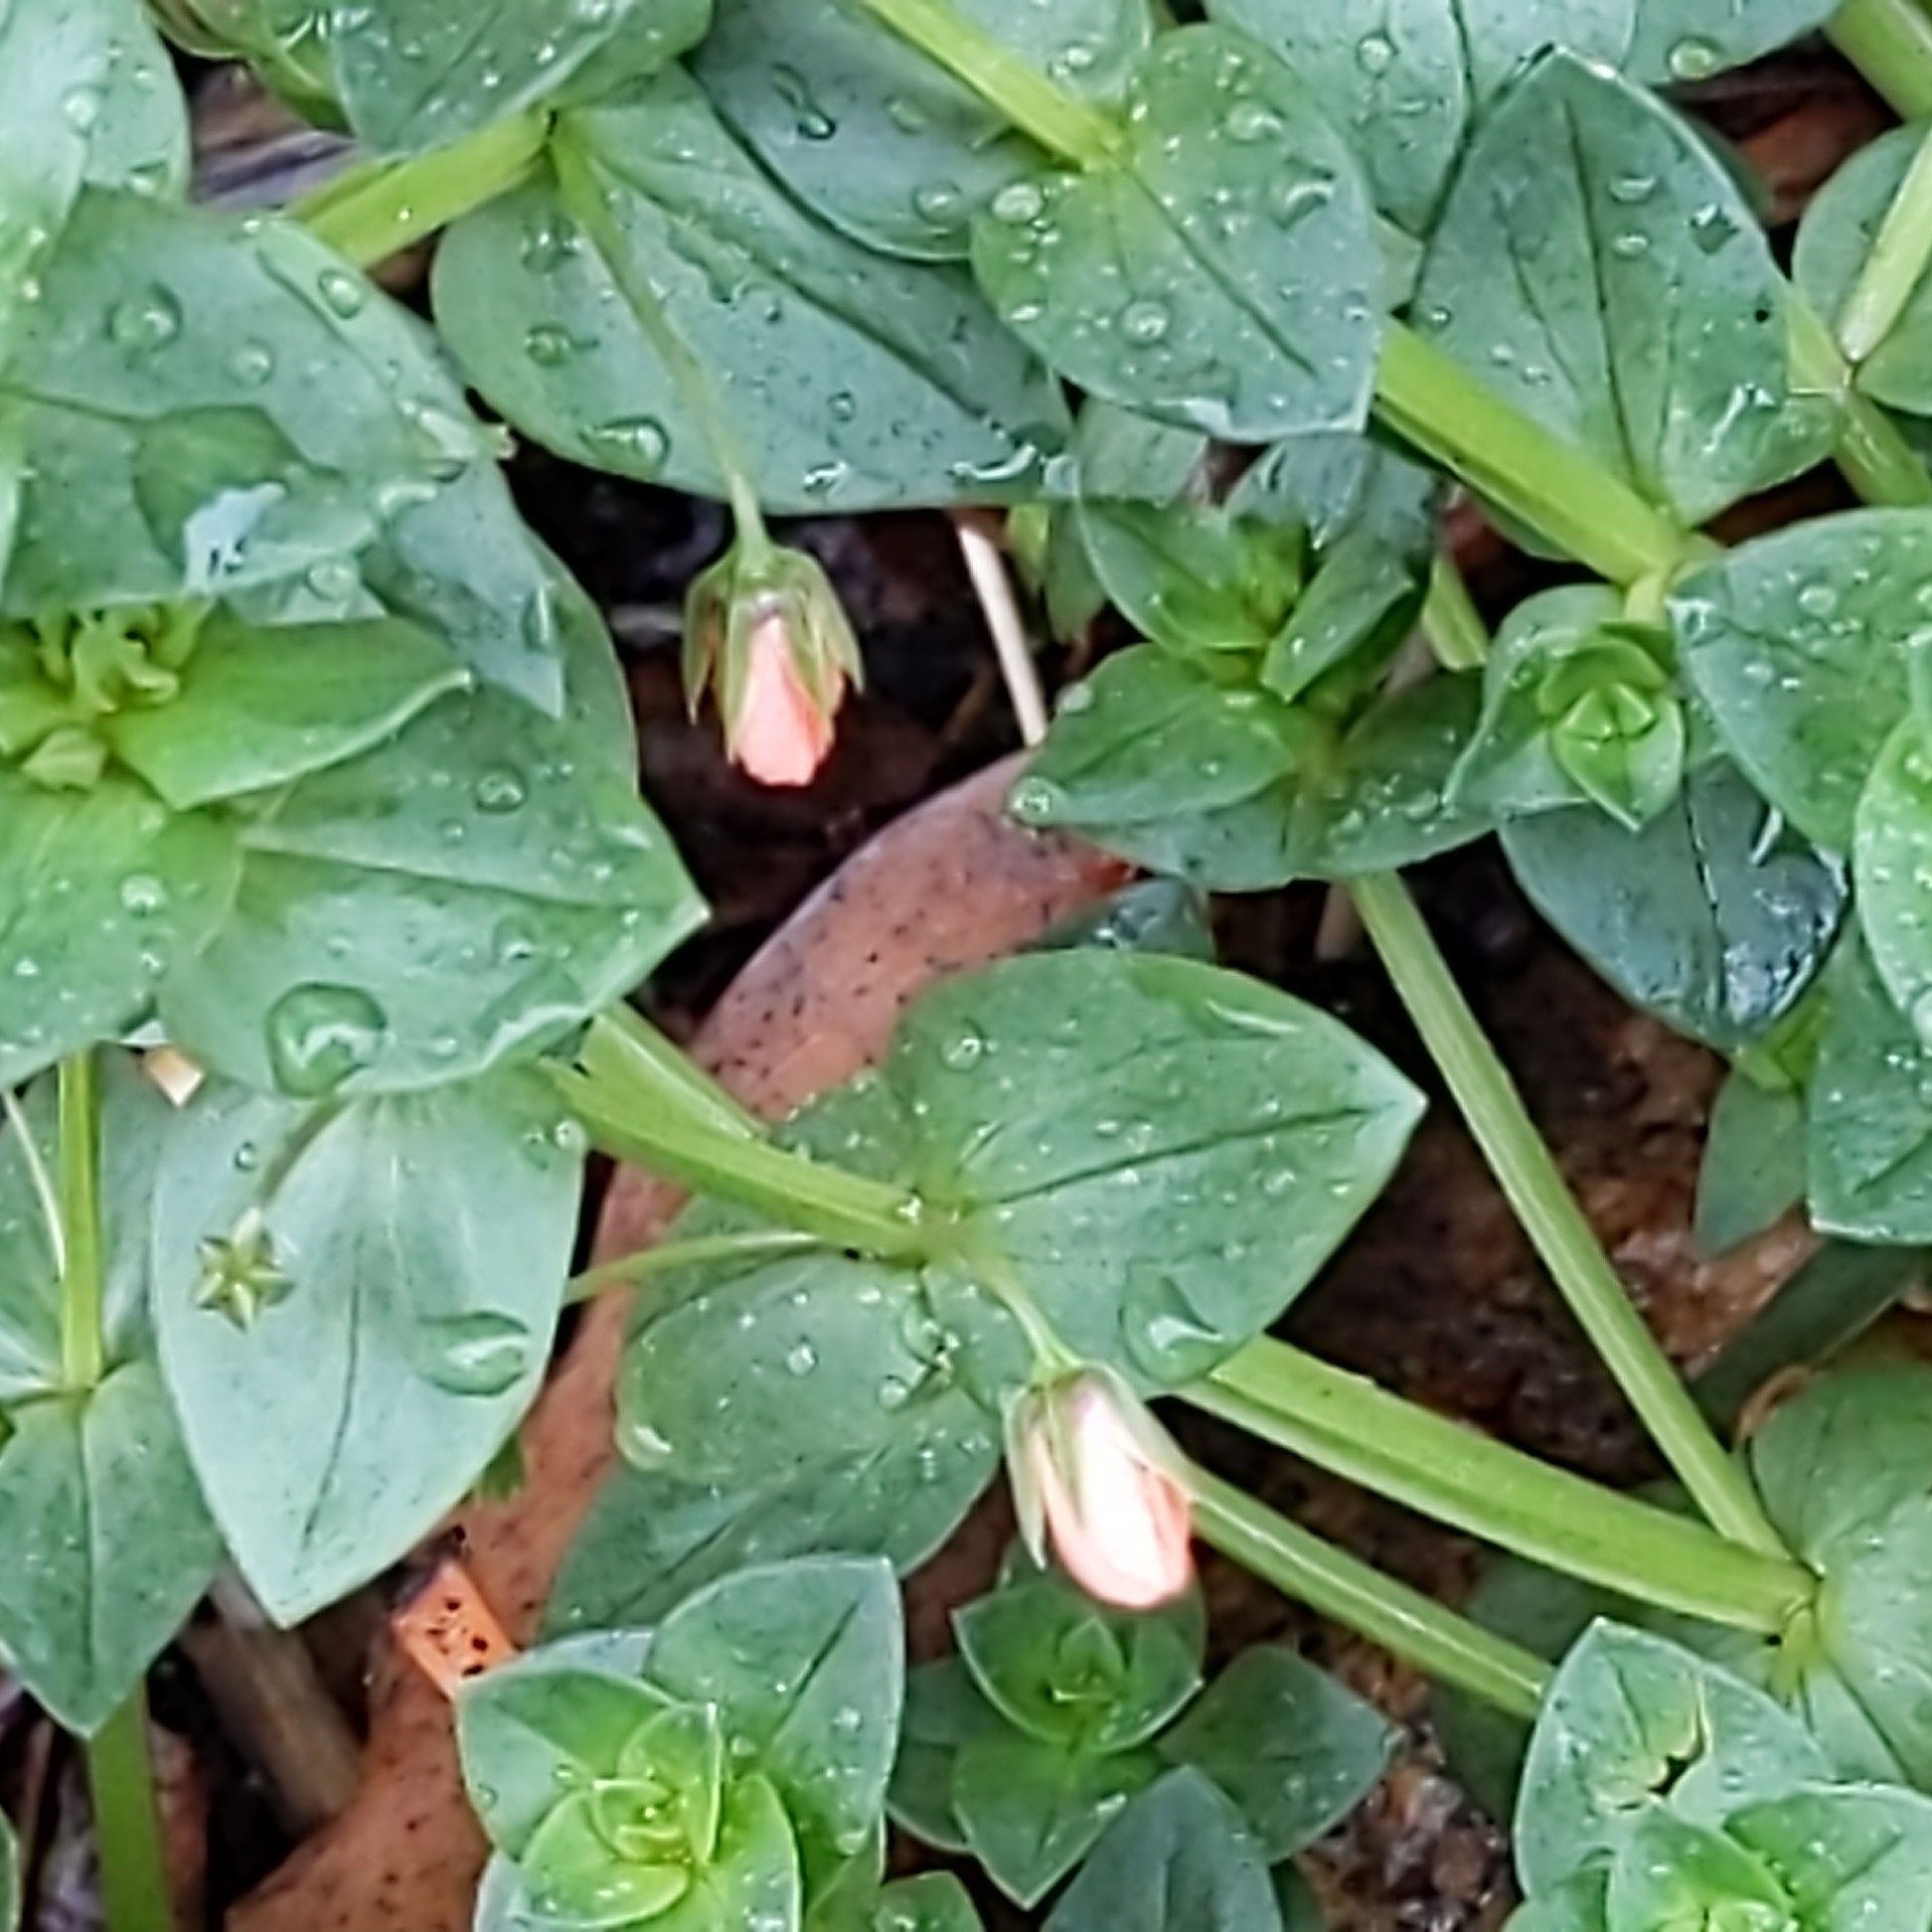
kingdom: Plantae
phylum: Tracheophyta
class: Magnoliopsida
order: Ericales
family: Primulaceae
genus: Lysimachia
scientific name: Lysimachia arvensis
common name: Scarlet pimpernel
